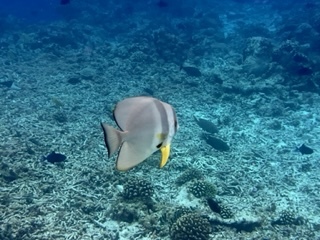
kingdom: Animalia
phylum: Chordata
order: Perciformes
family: Ephippidae
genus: Platax
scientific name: Platax teira
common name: Longfin baitfish
